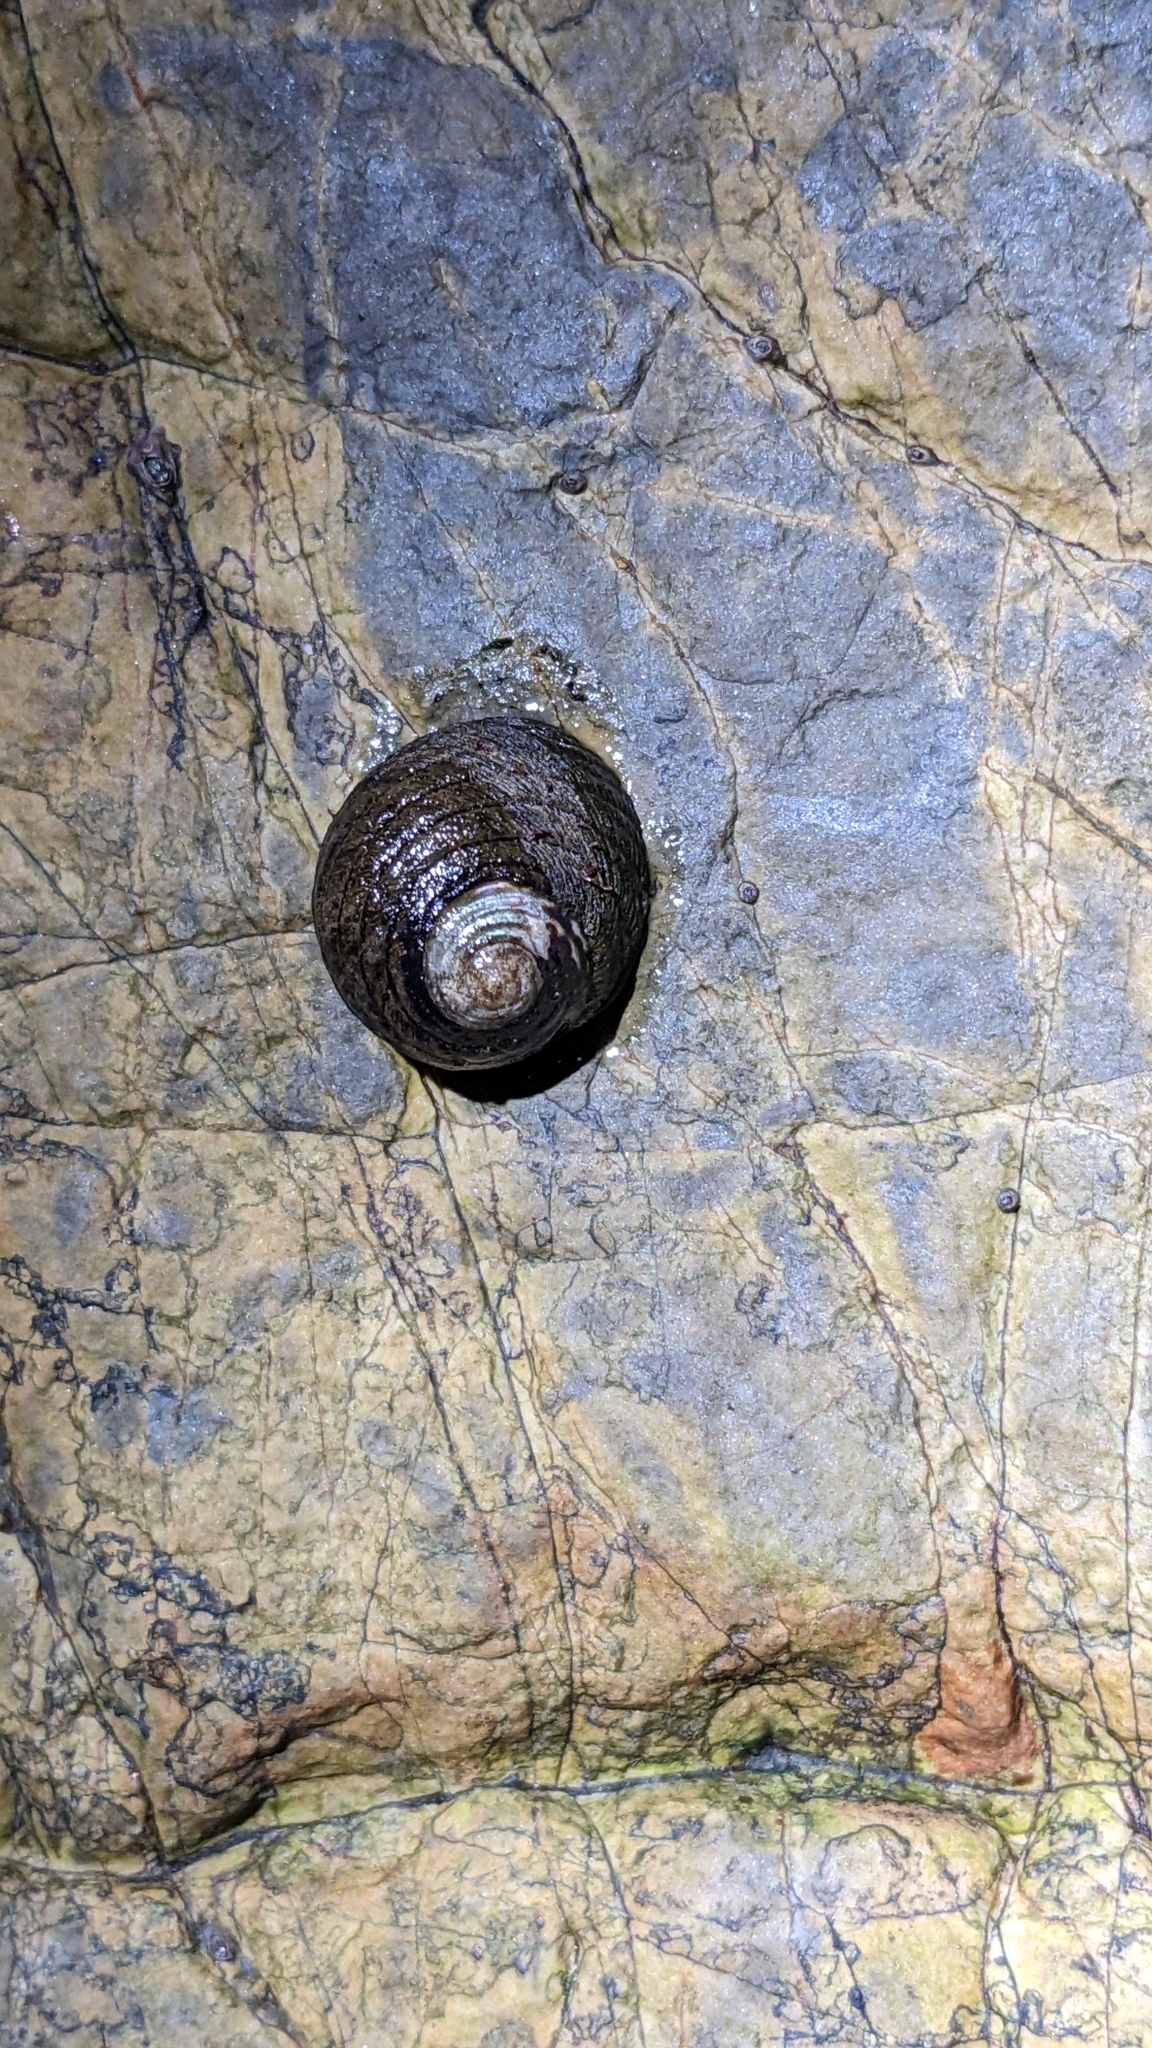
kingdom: Animalia
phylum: Mollusca
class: Gastropoda
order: Trochida
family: Trochidae
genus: Diloma
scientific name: Diloma aethiops
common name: Scorched monodont
